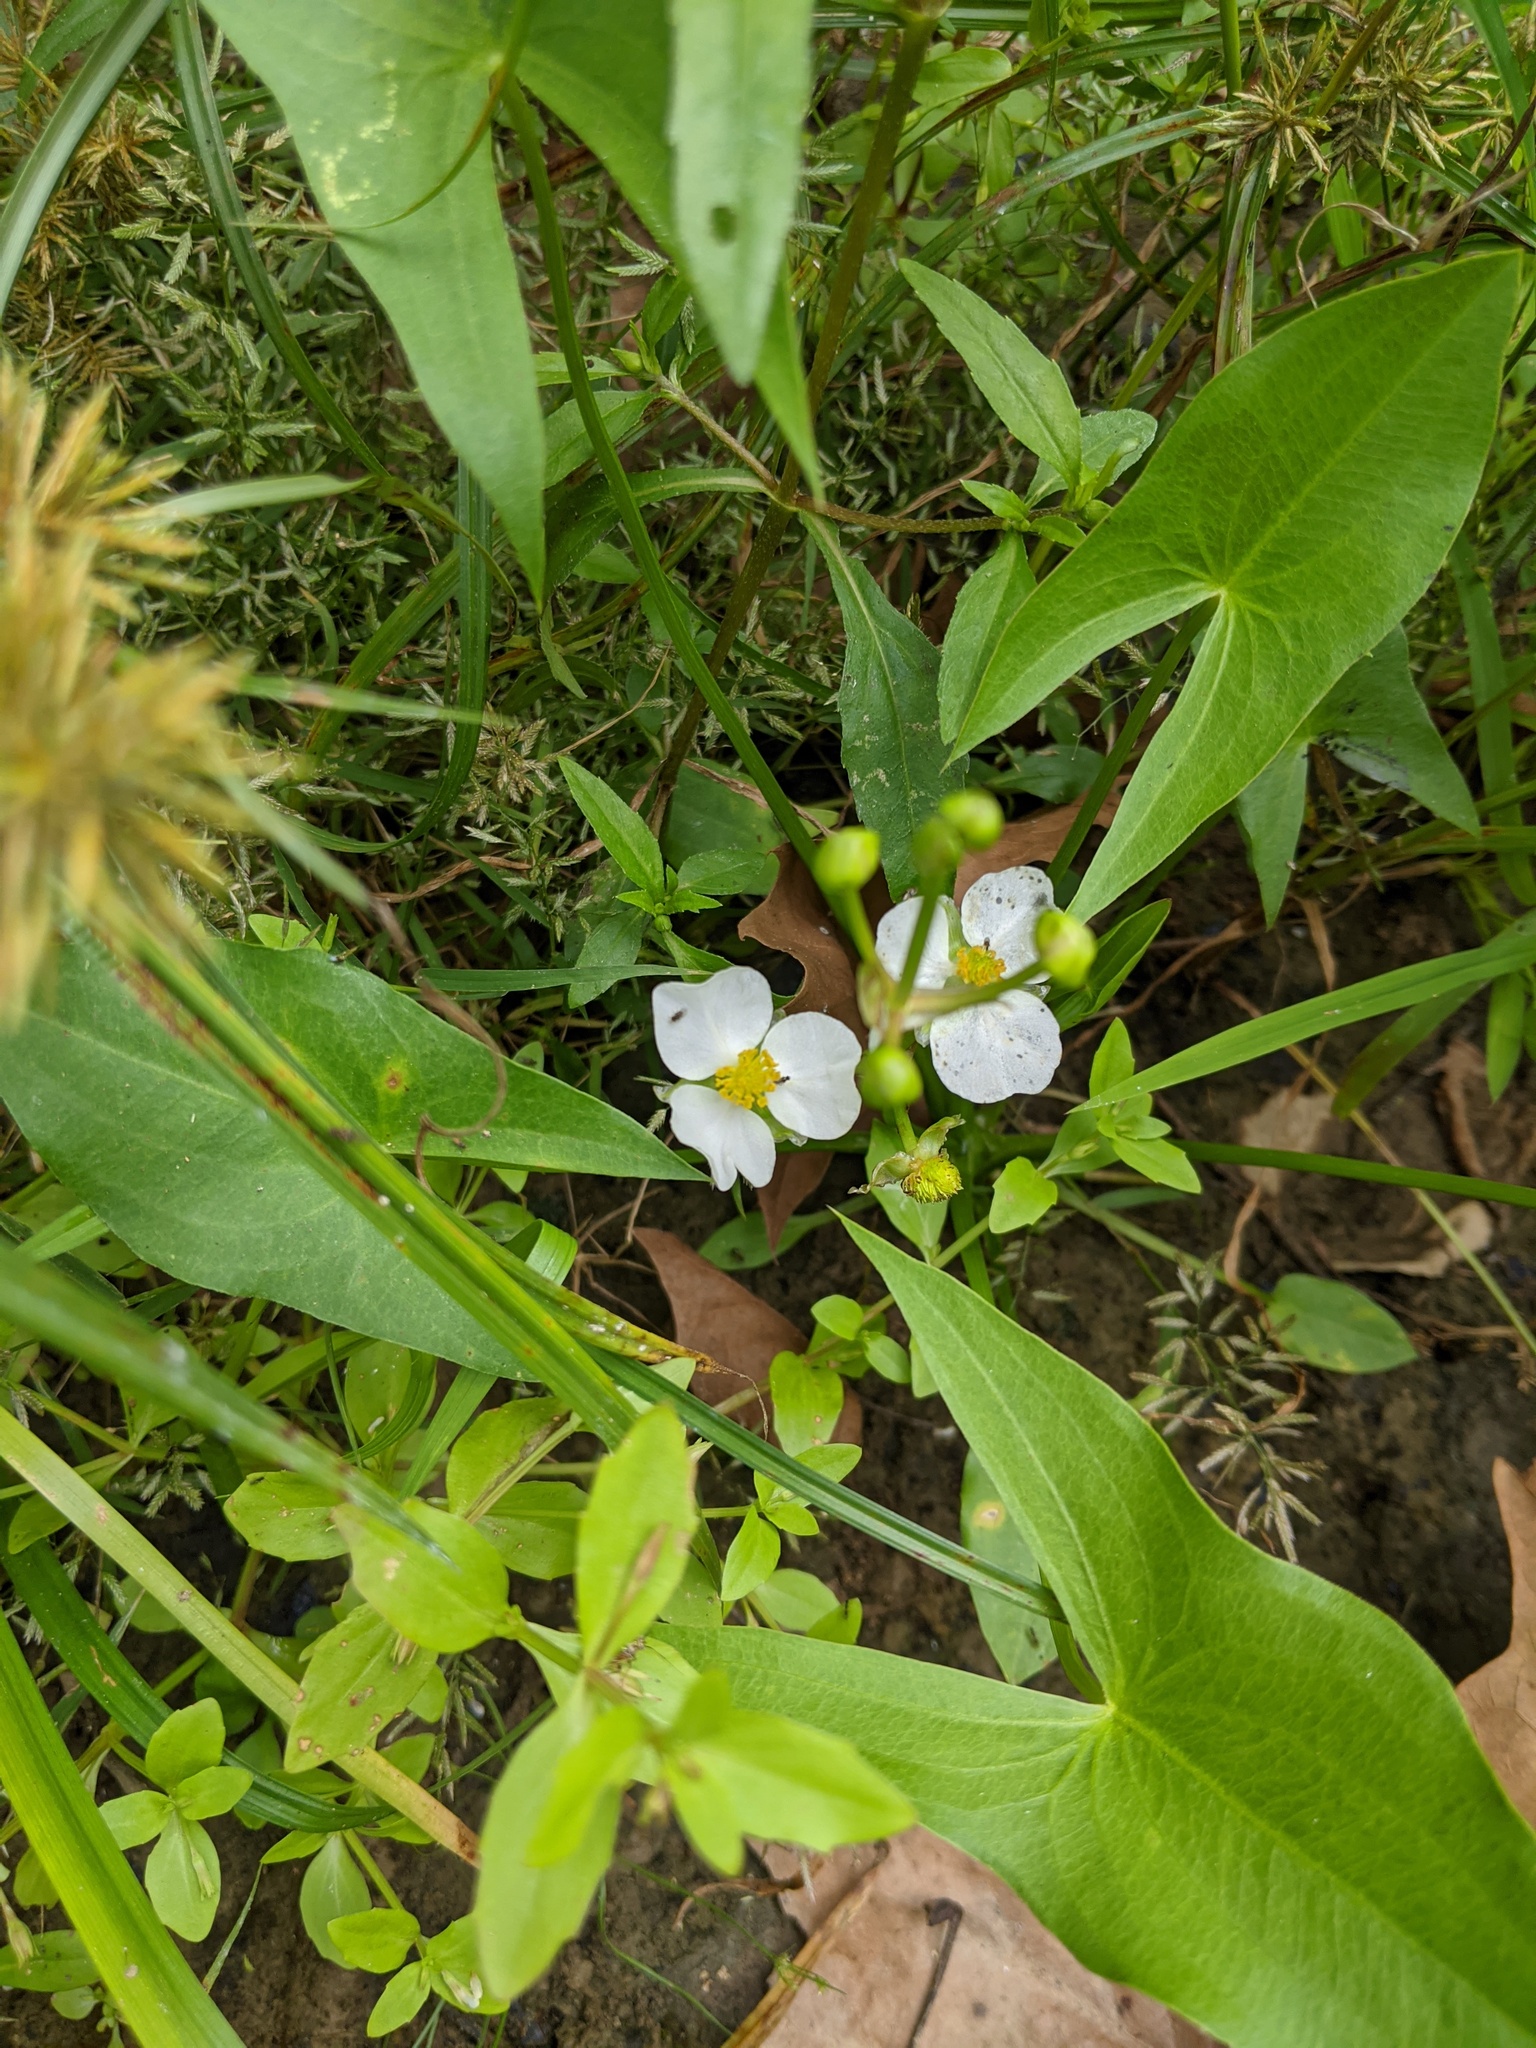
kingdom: Plantae
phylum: Tracheophyta
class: Liliopsida
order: Alismatales
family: Alismataceae
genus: Sagittaria
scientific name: Sagittaria latifolia
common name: Duck-potato
